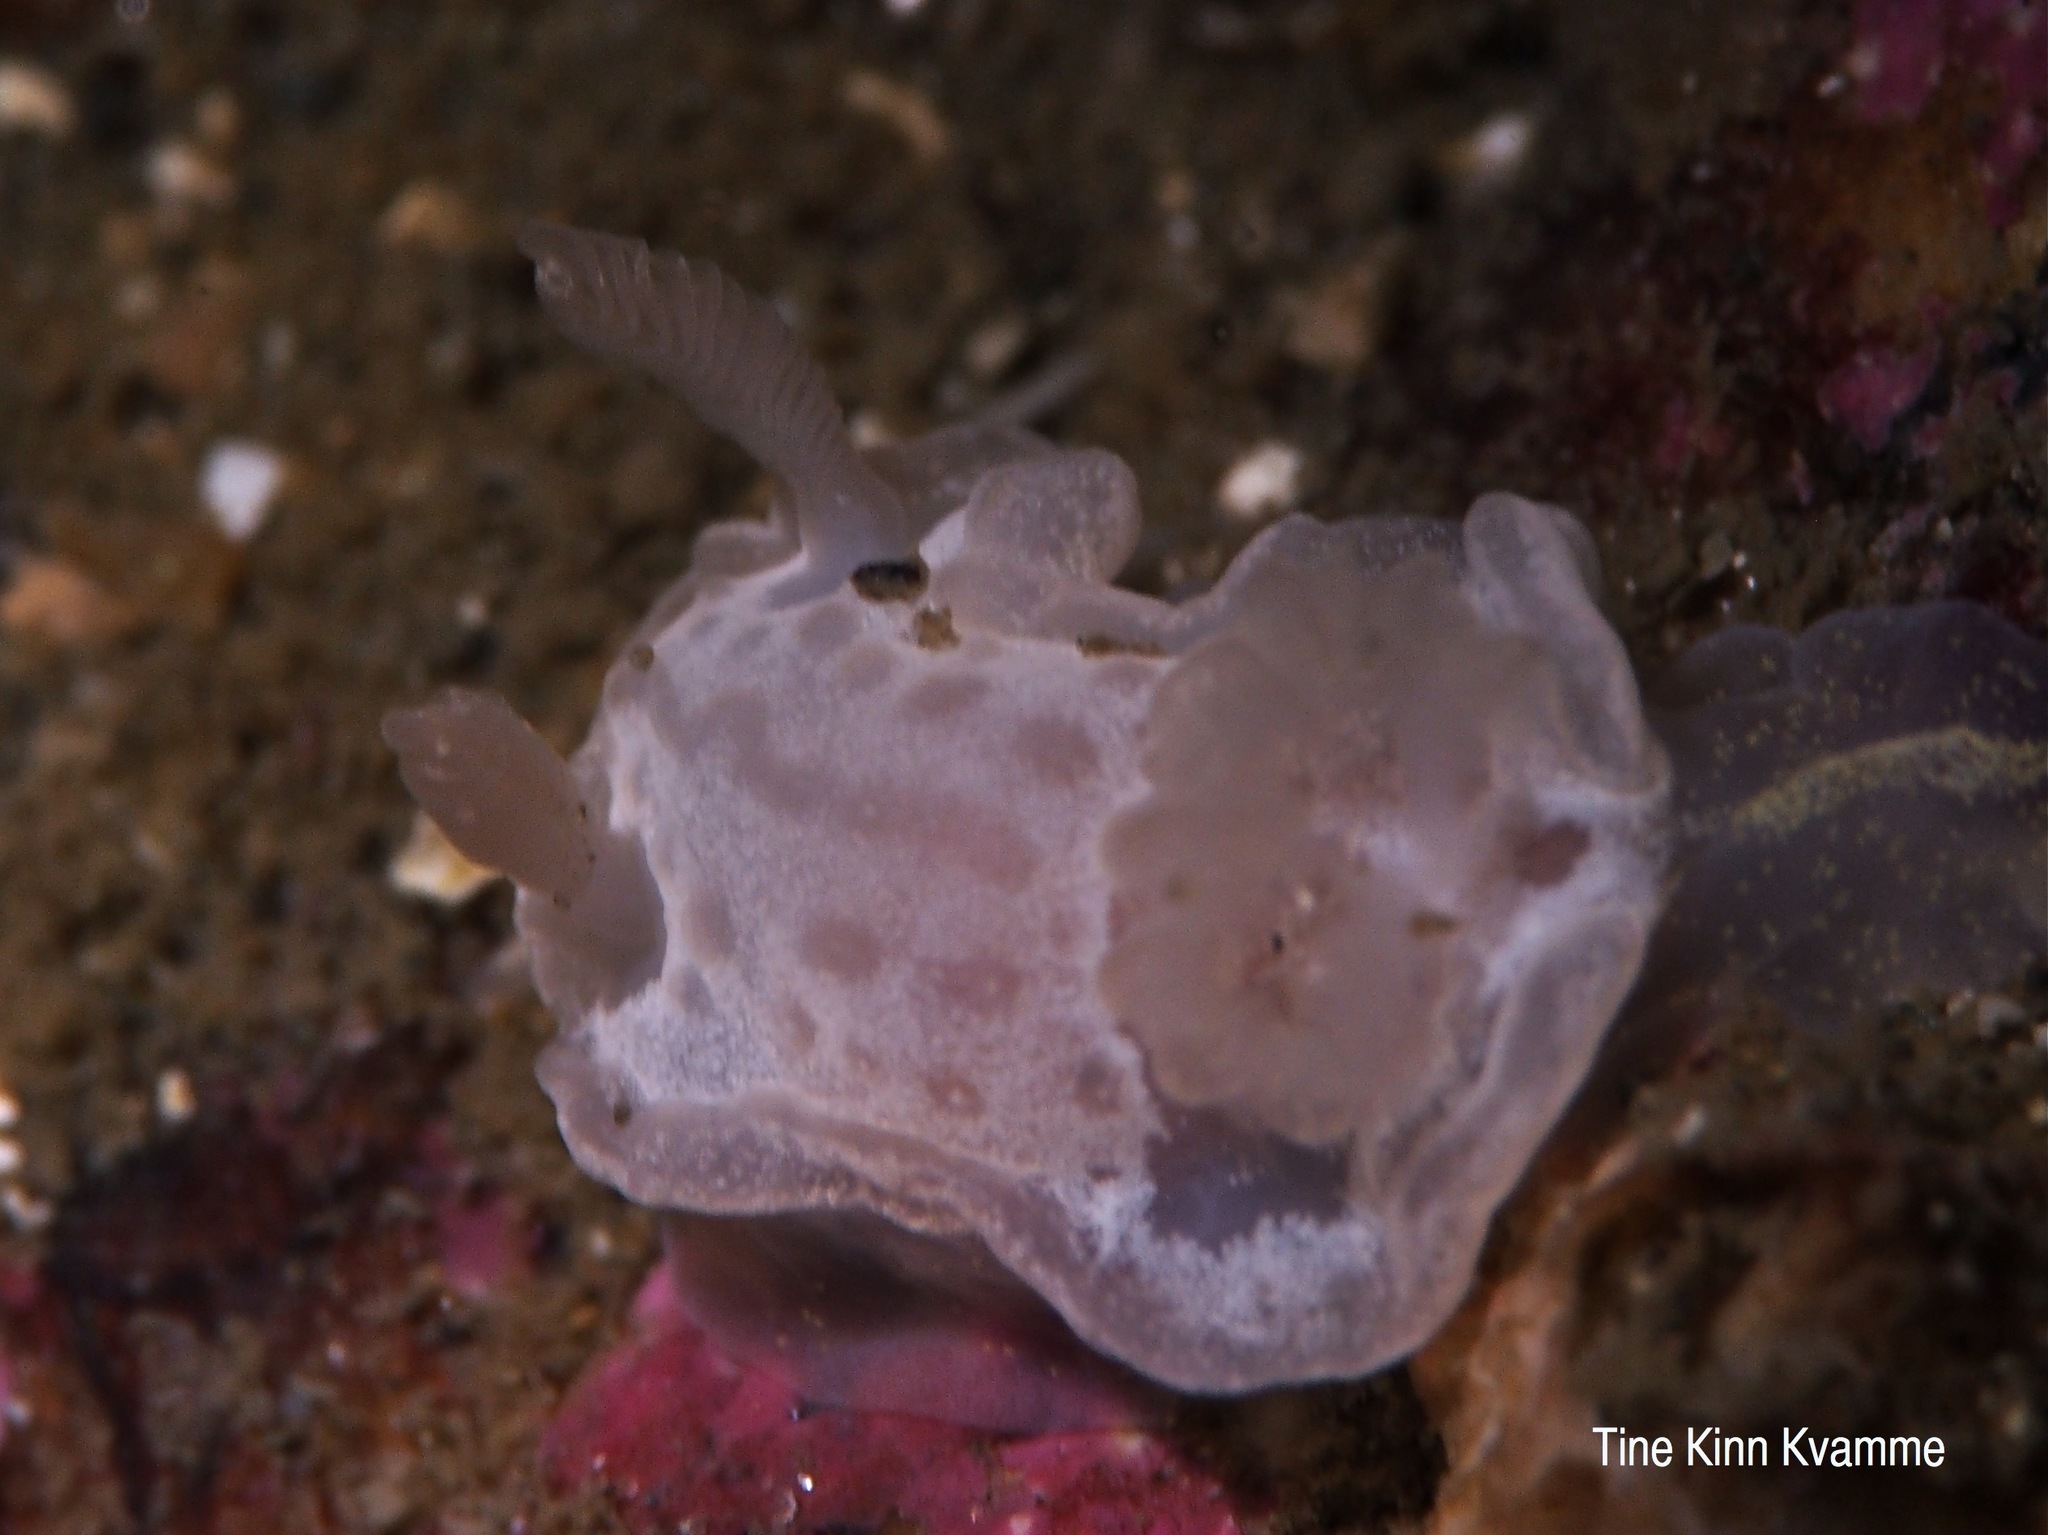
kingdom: Animalia
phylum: Mollusca
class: Gastropoda
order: Nudibranchia
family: Goniodorididae
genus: Okenia
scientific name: Okenia
